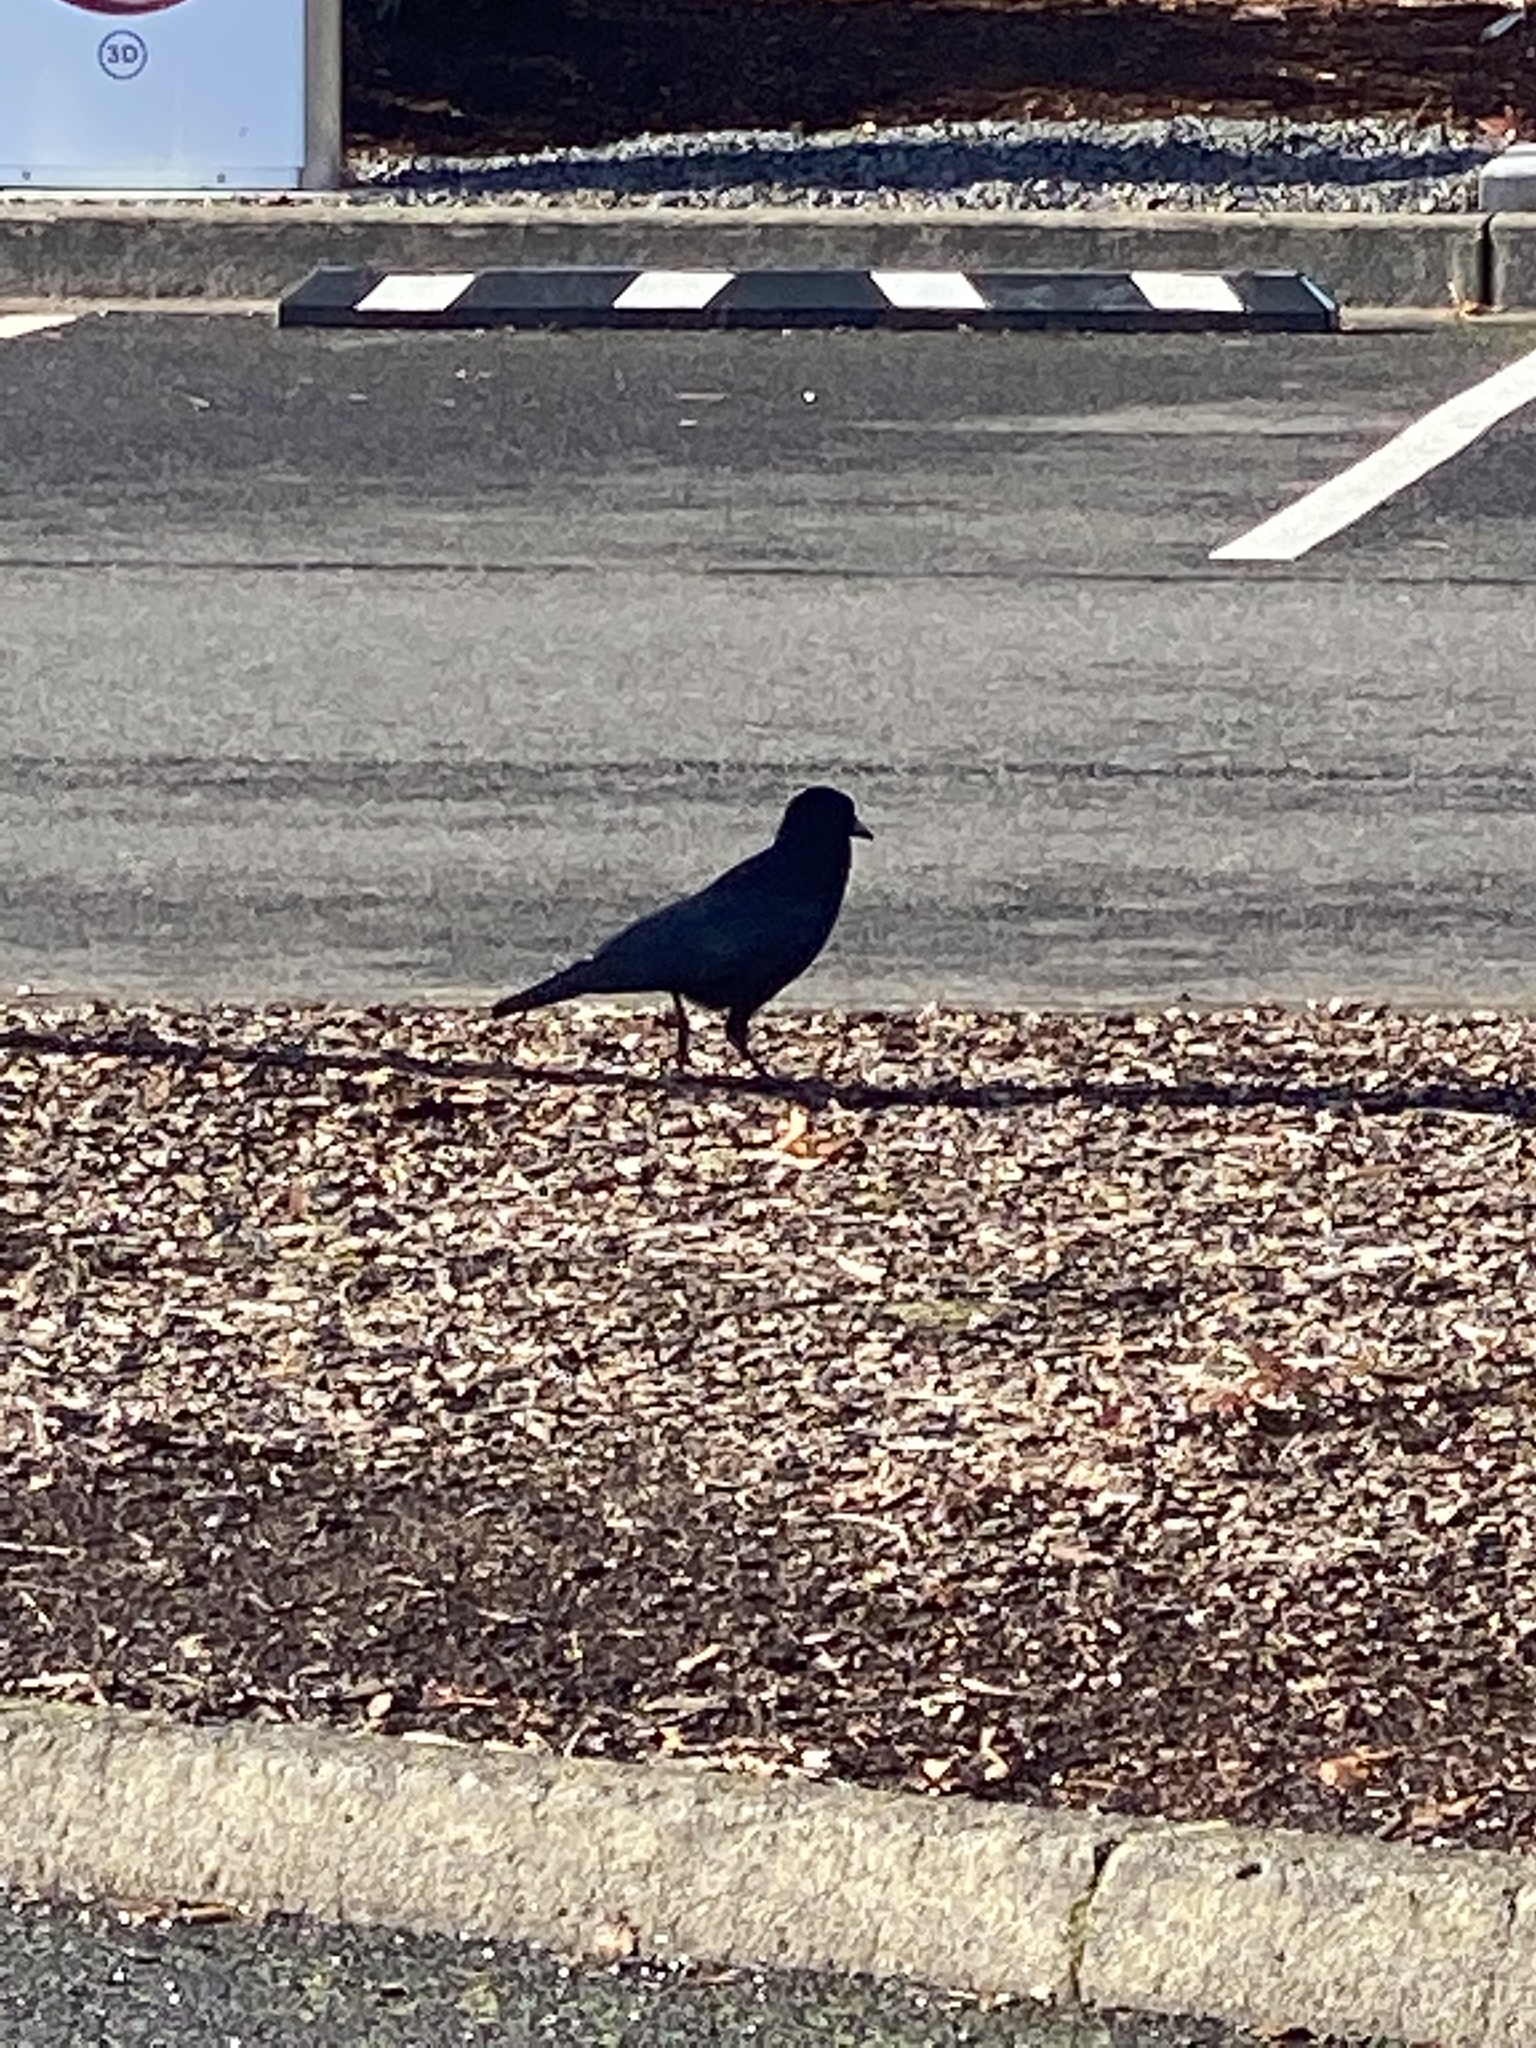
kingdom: Animalia
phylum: Chordata
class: Aves
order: Passeriformes
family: Corvidae
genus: Corvus
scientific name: Corvus brachyrhynchos
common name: American crow
